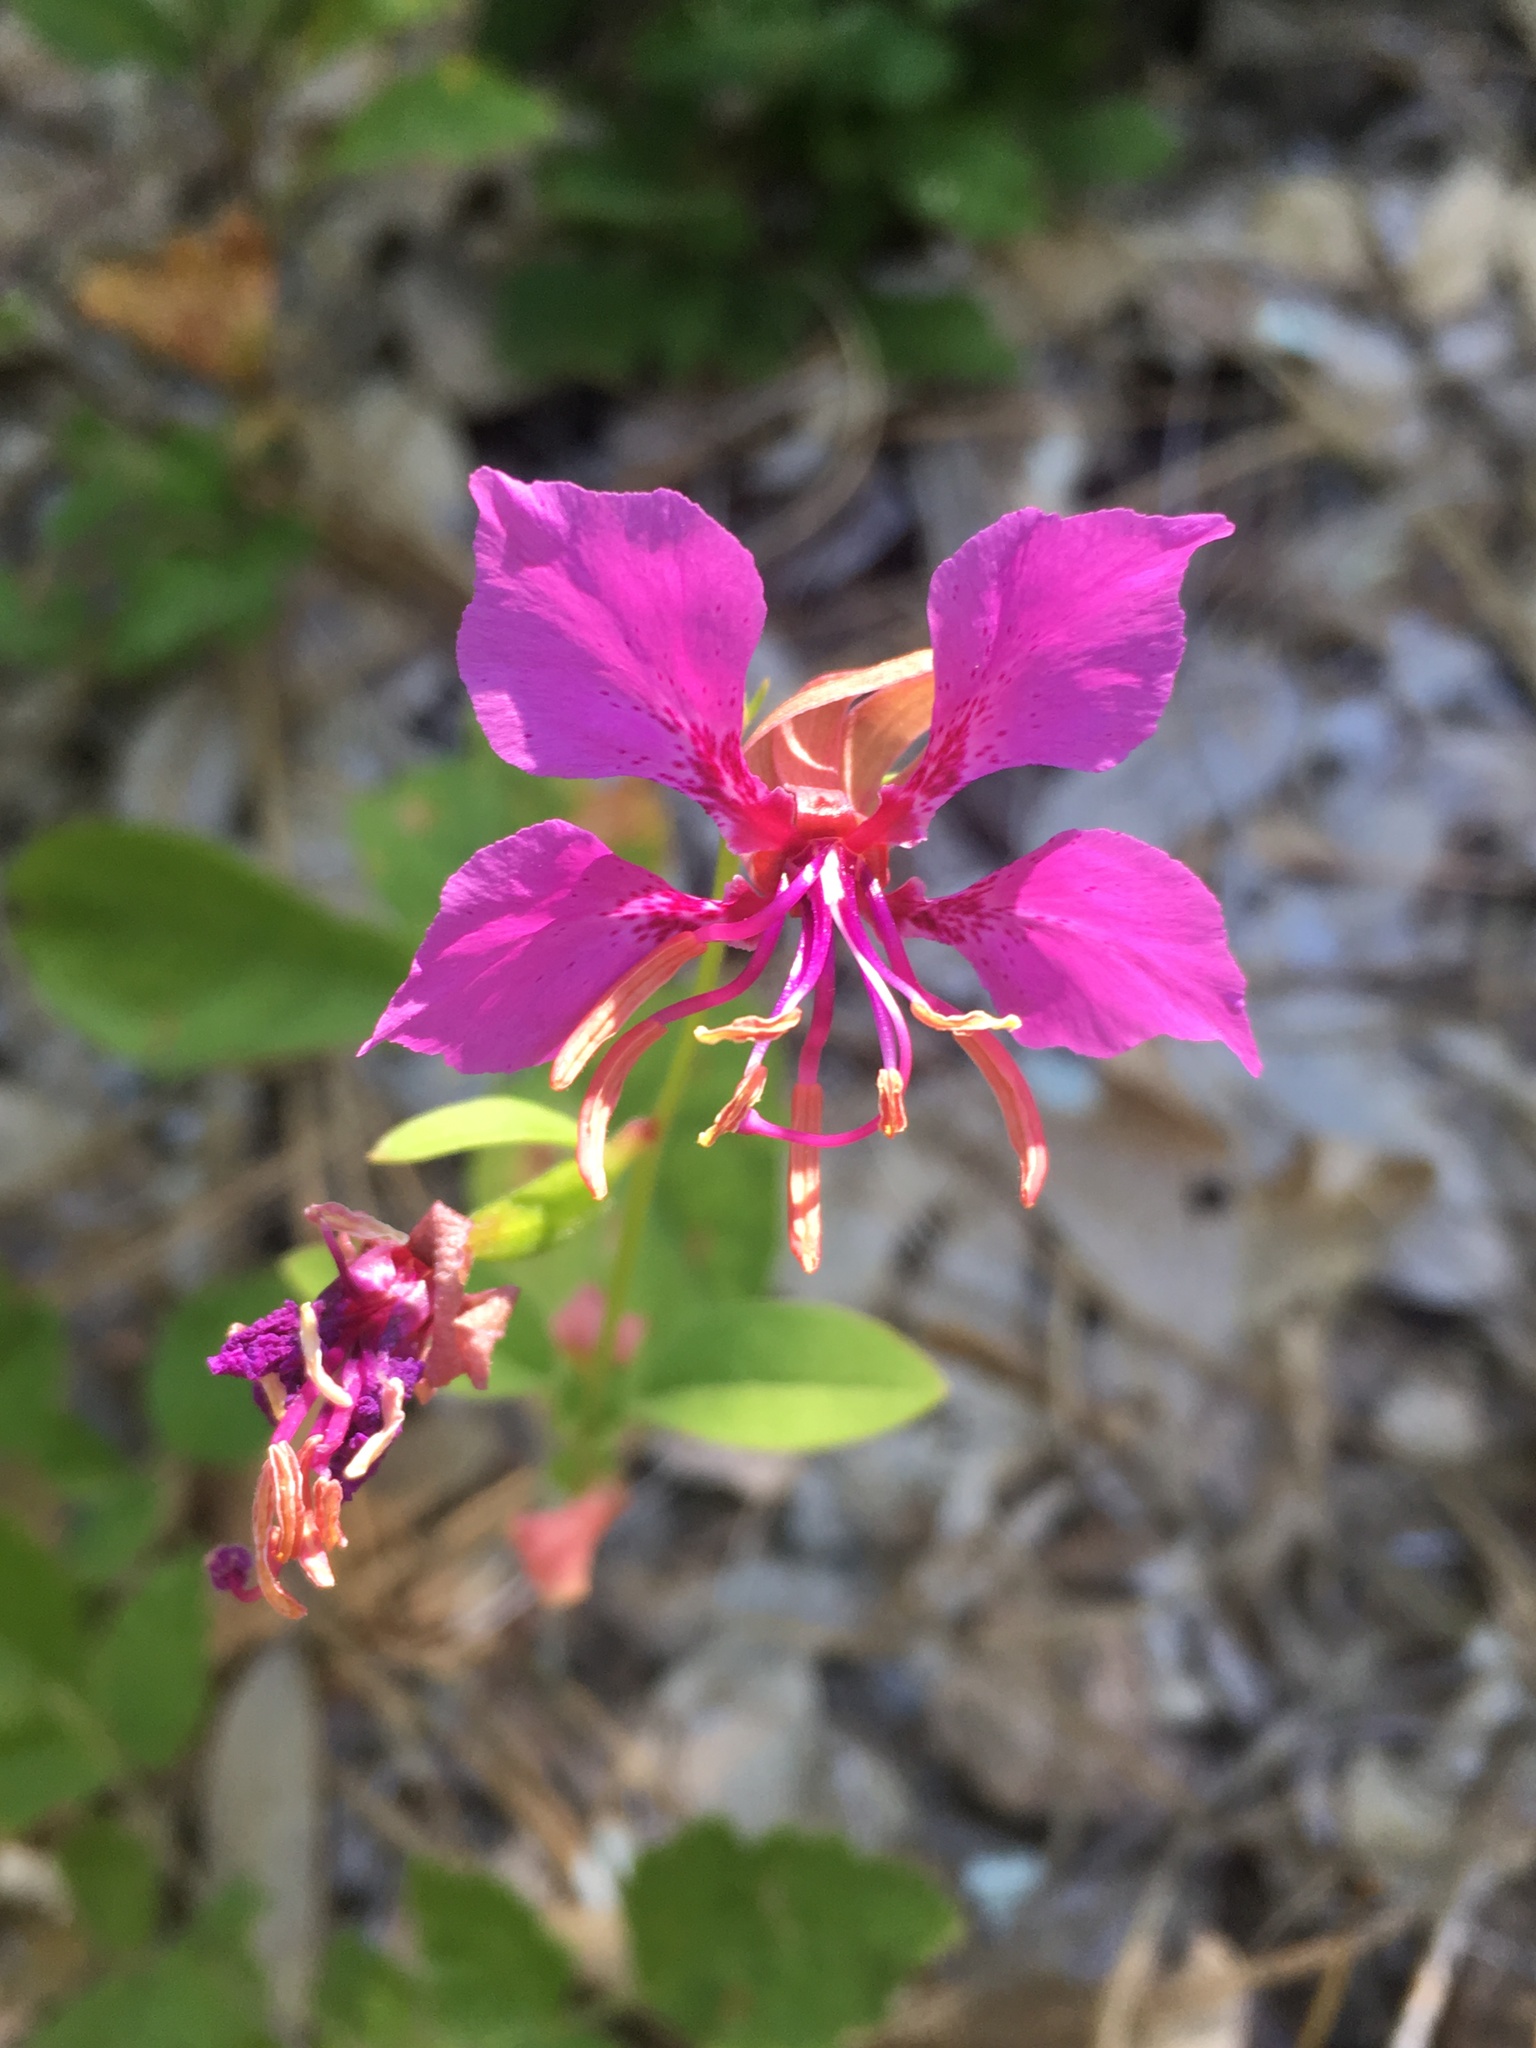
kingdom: Plantae
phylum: Tracheophyta
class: Magnoliopsida
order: Myrtales
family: Onagraceae
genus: Clarkia
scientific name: Clarkia mildrediae
